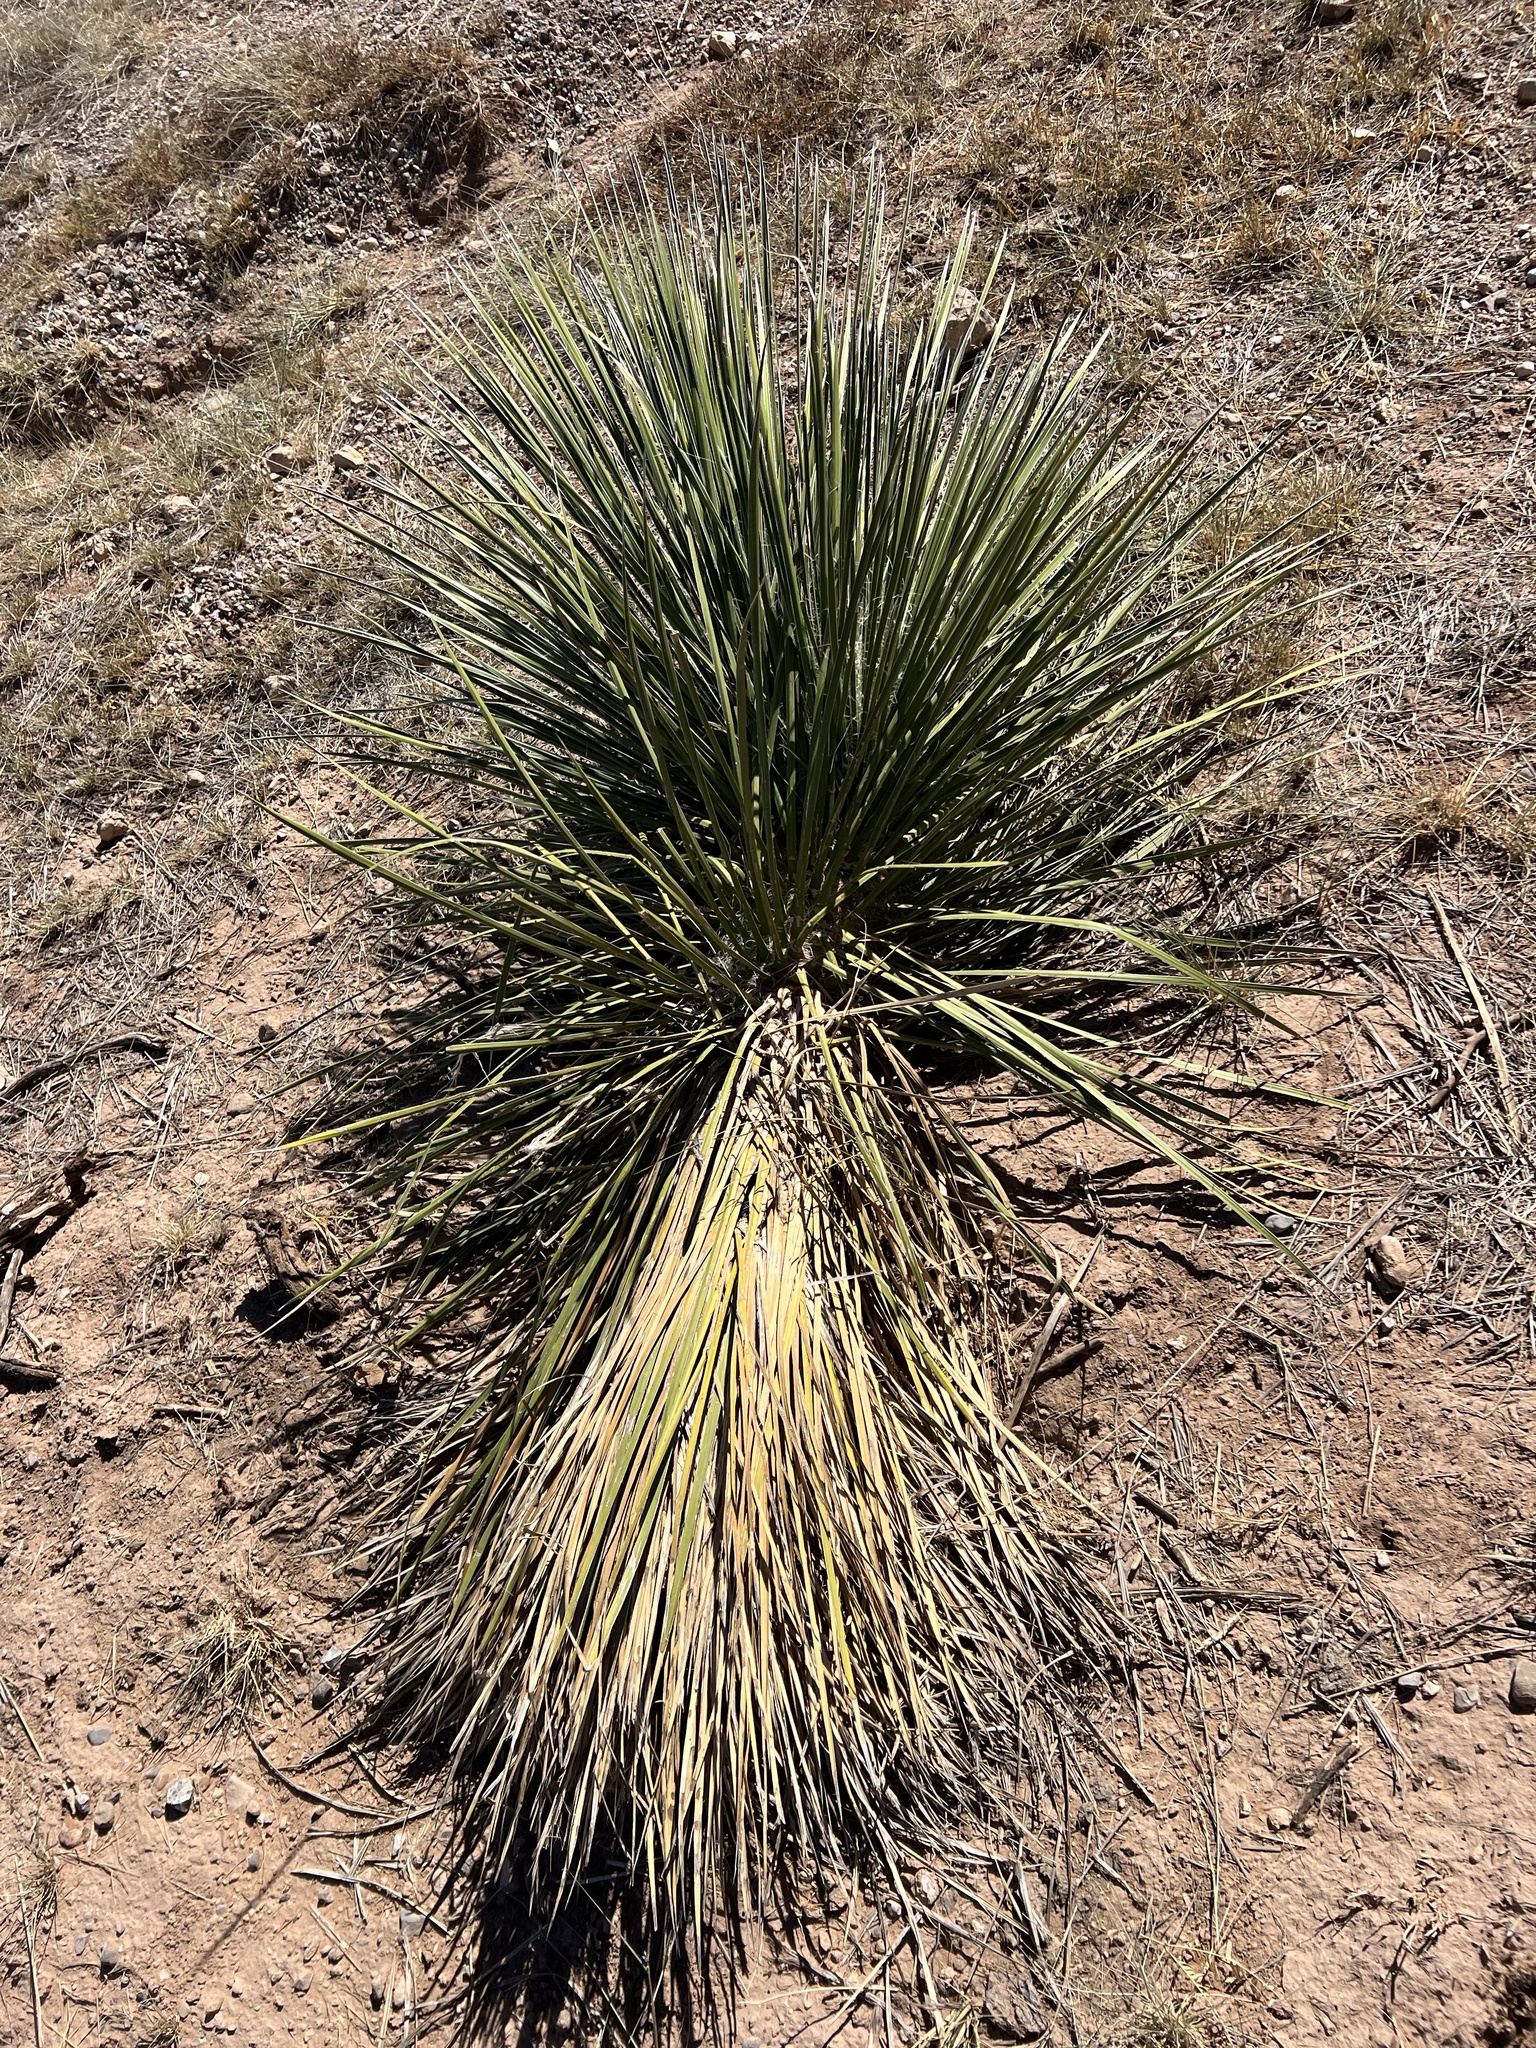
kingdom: Plantae
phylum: Tracheophyta
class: Liliopsida
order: Asparagales
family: Asparagaceae
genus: Yucca
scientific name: Yucca elata
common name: Palmella
